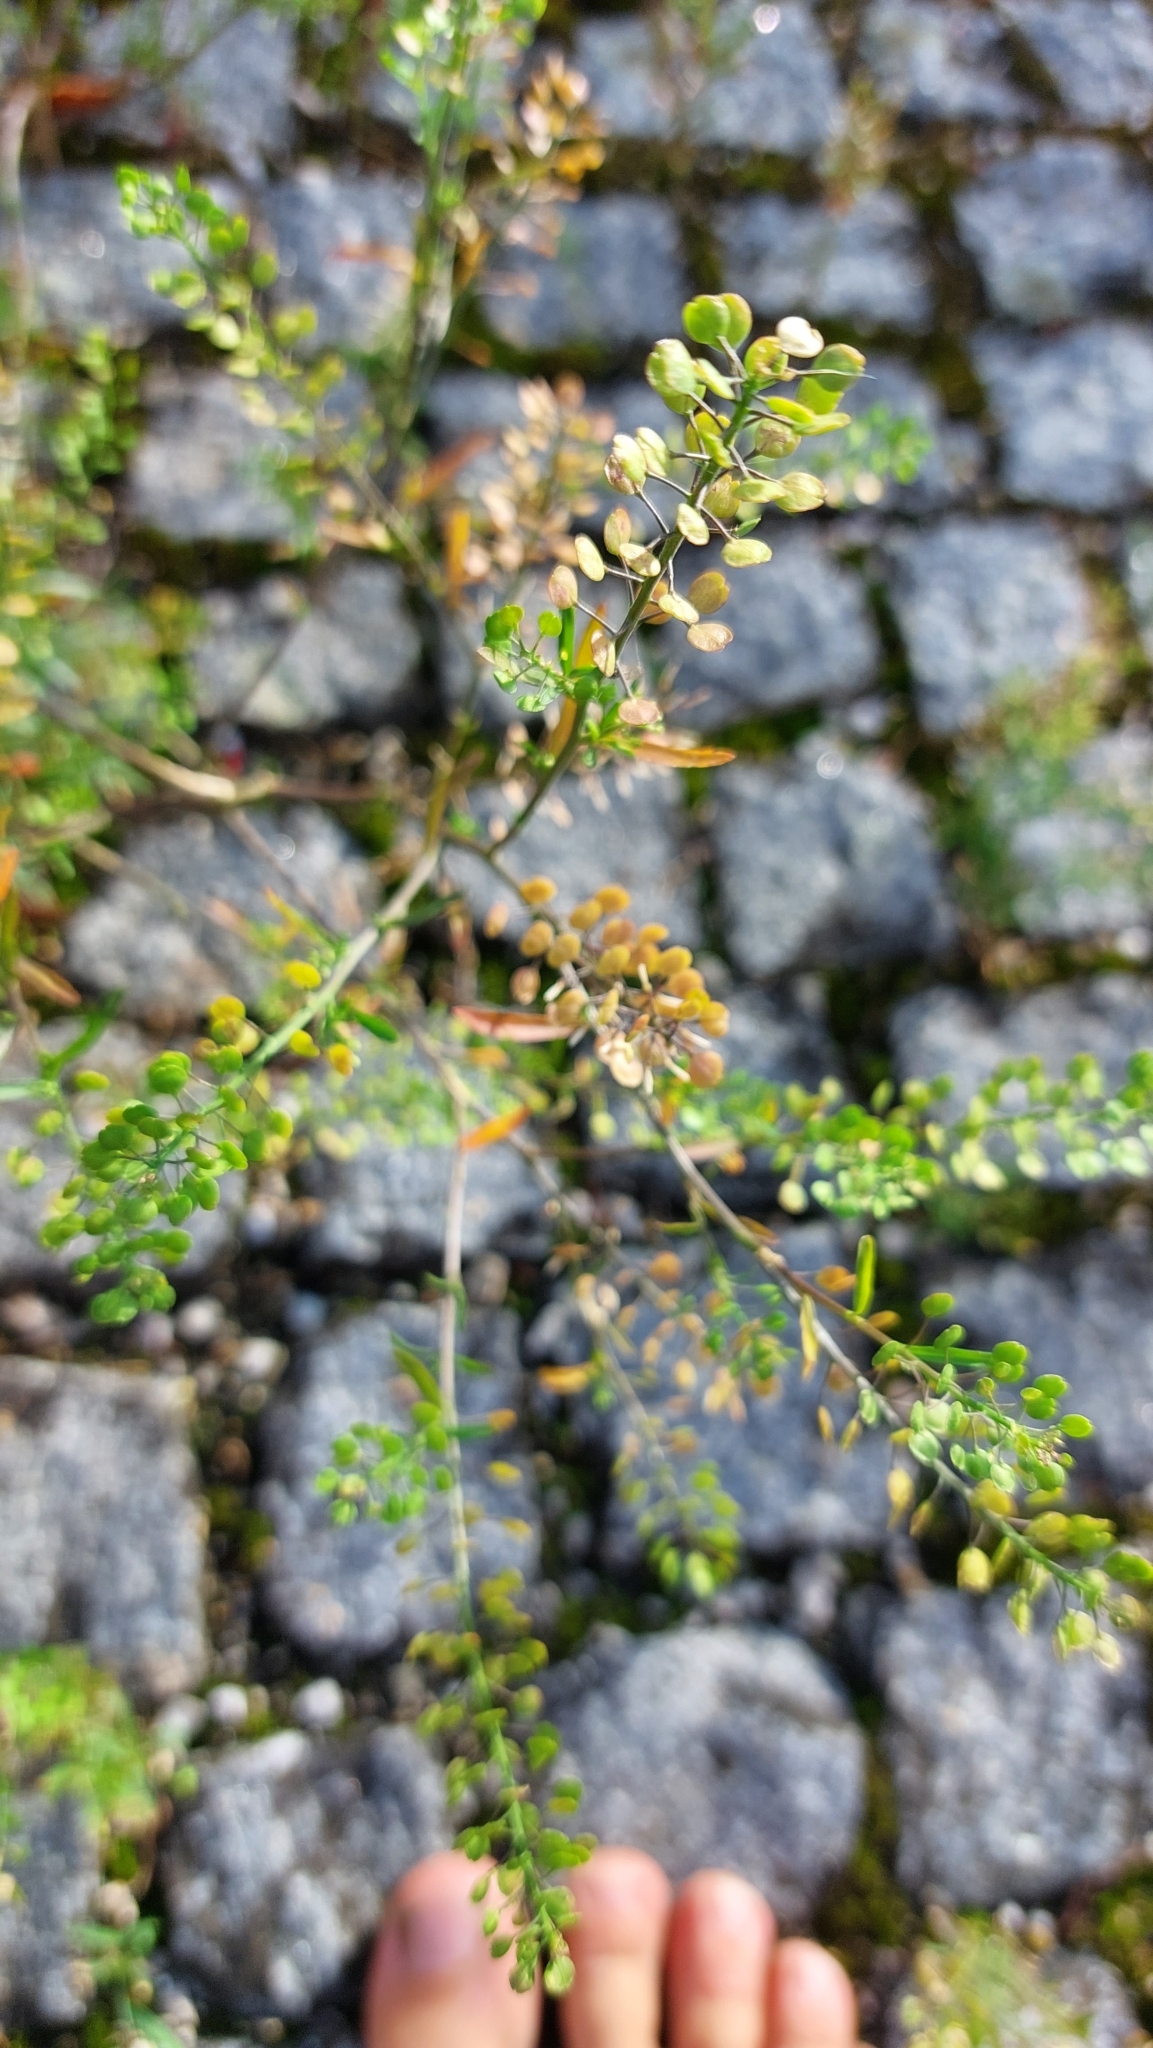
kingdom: Plantae
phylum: Tracheophyta
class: Magnoliopsida
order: Brassicales
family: Brassicaceae
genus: Lepidium
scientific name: Lepidium ruderale
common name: Narrow-leaved pepperwort
